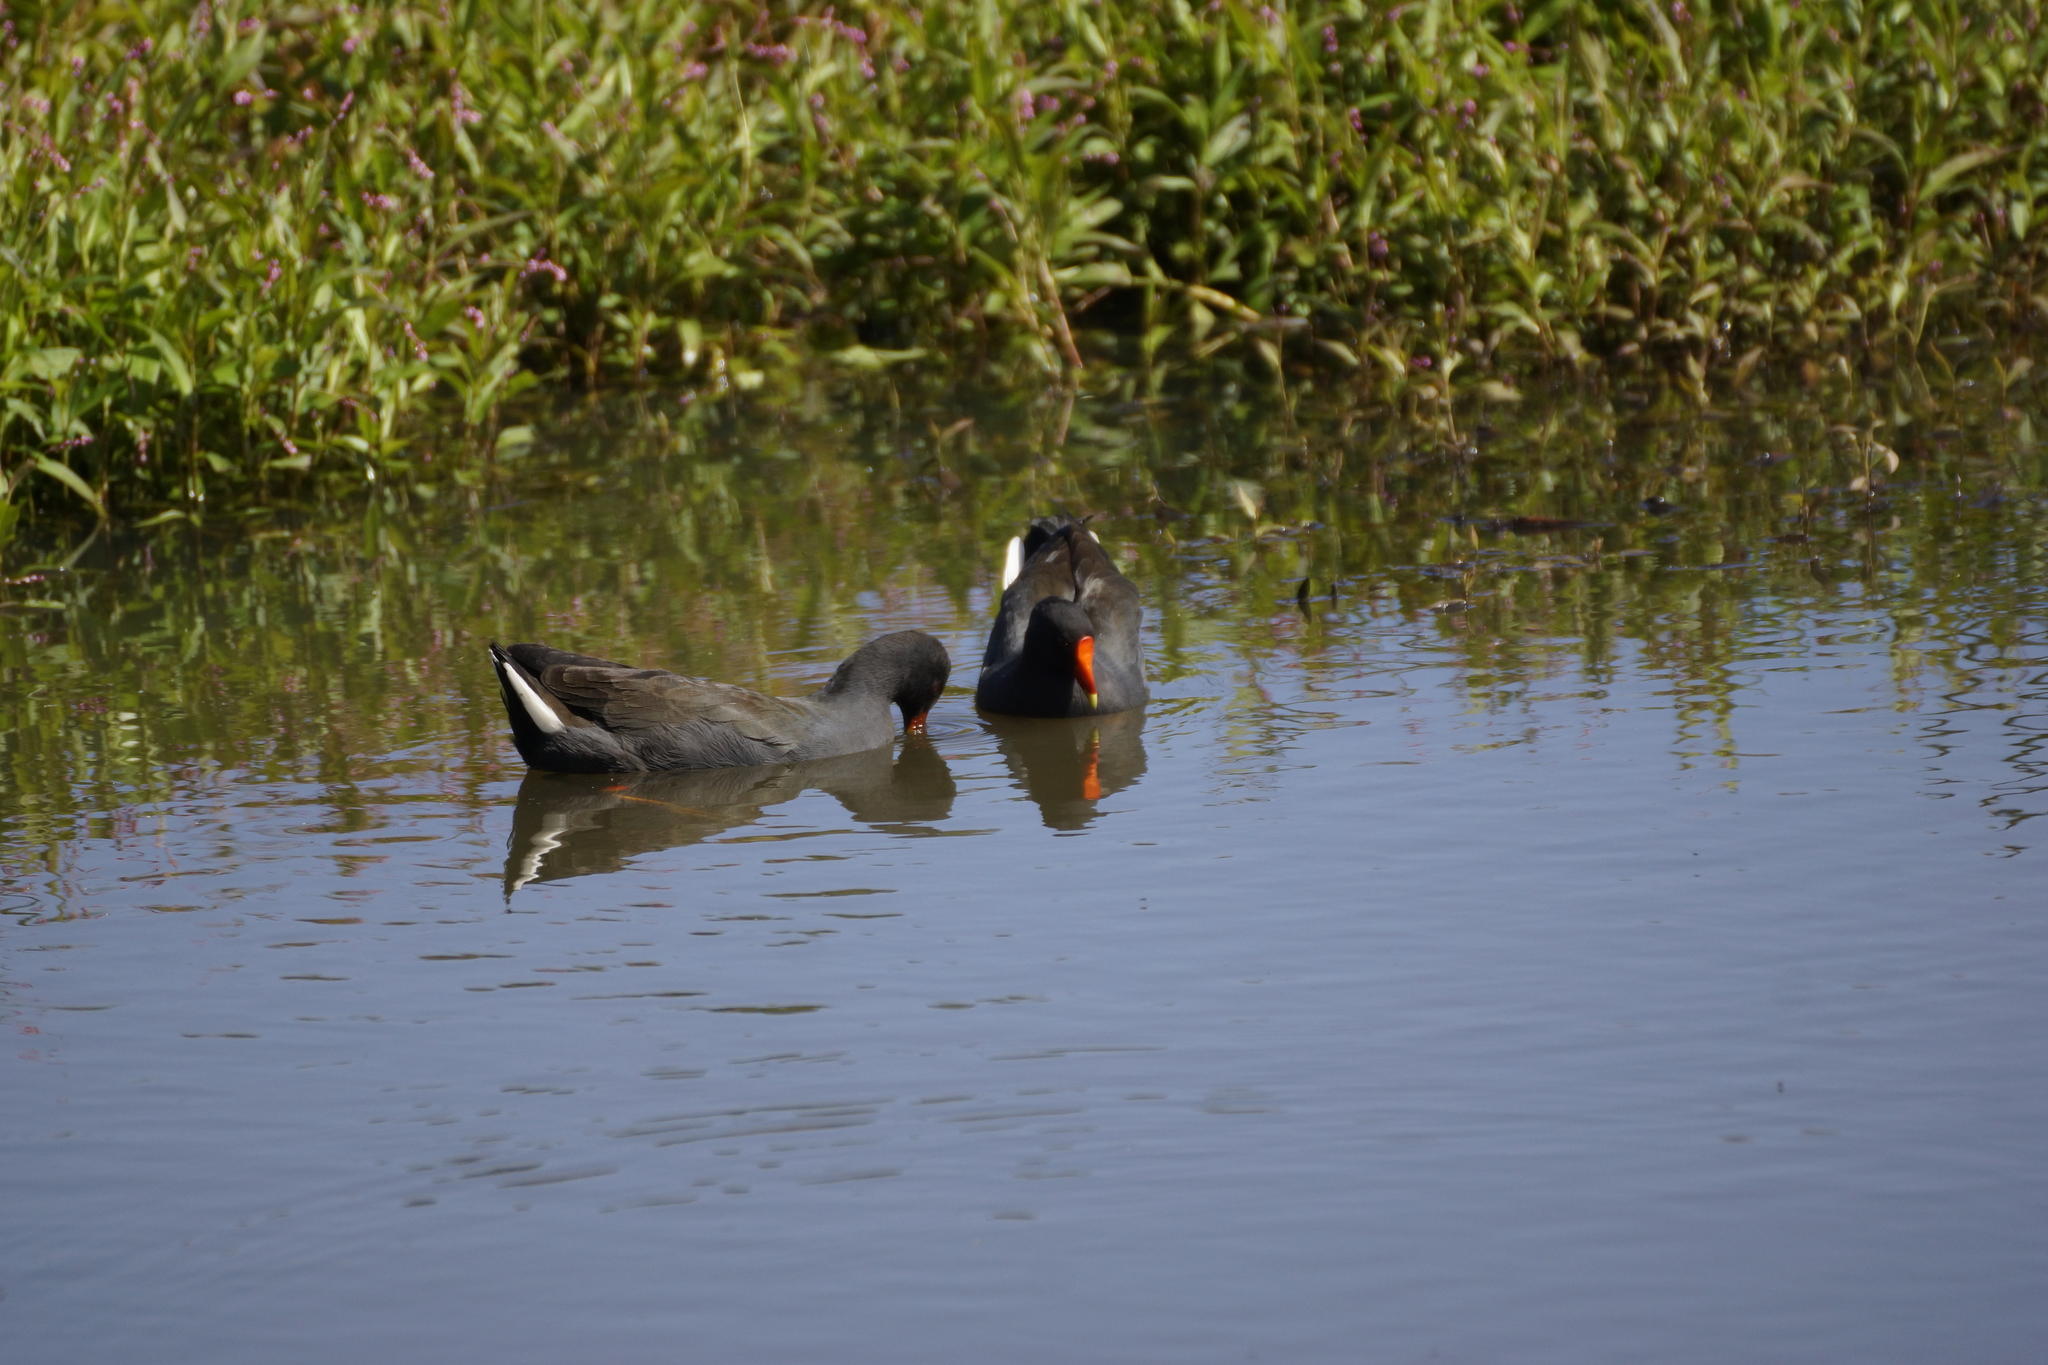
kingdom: Animalia
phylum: Chordata
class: Aves
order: Gruiformes
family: Rallidae
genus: Gallinula
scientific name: Gallinula tenebrosa
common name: Dusky moorhen
